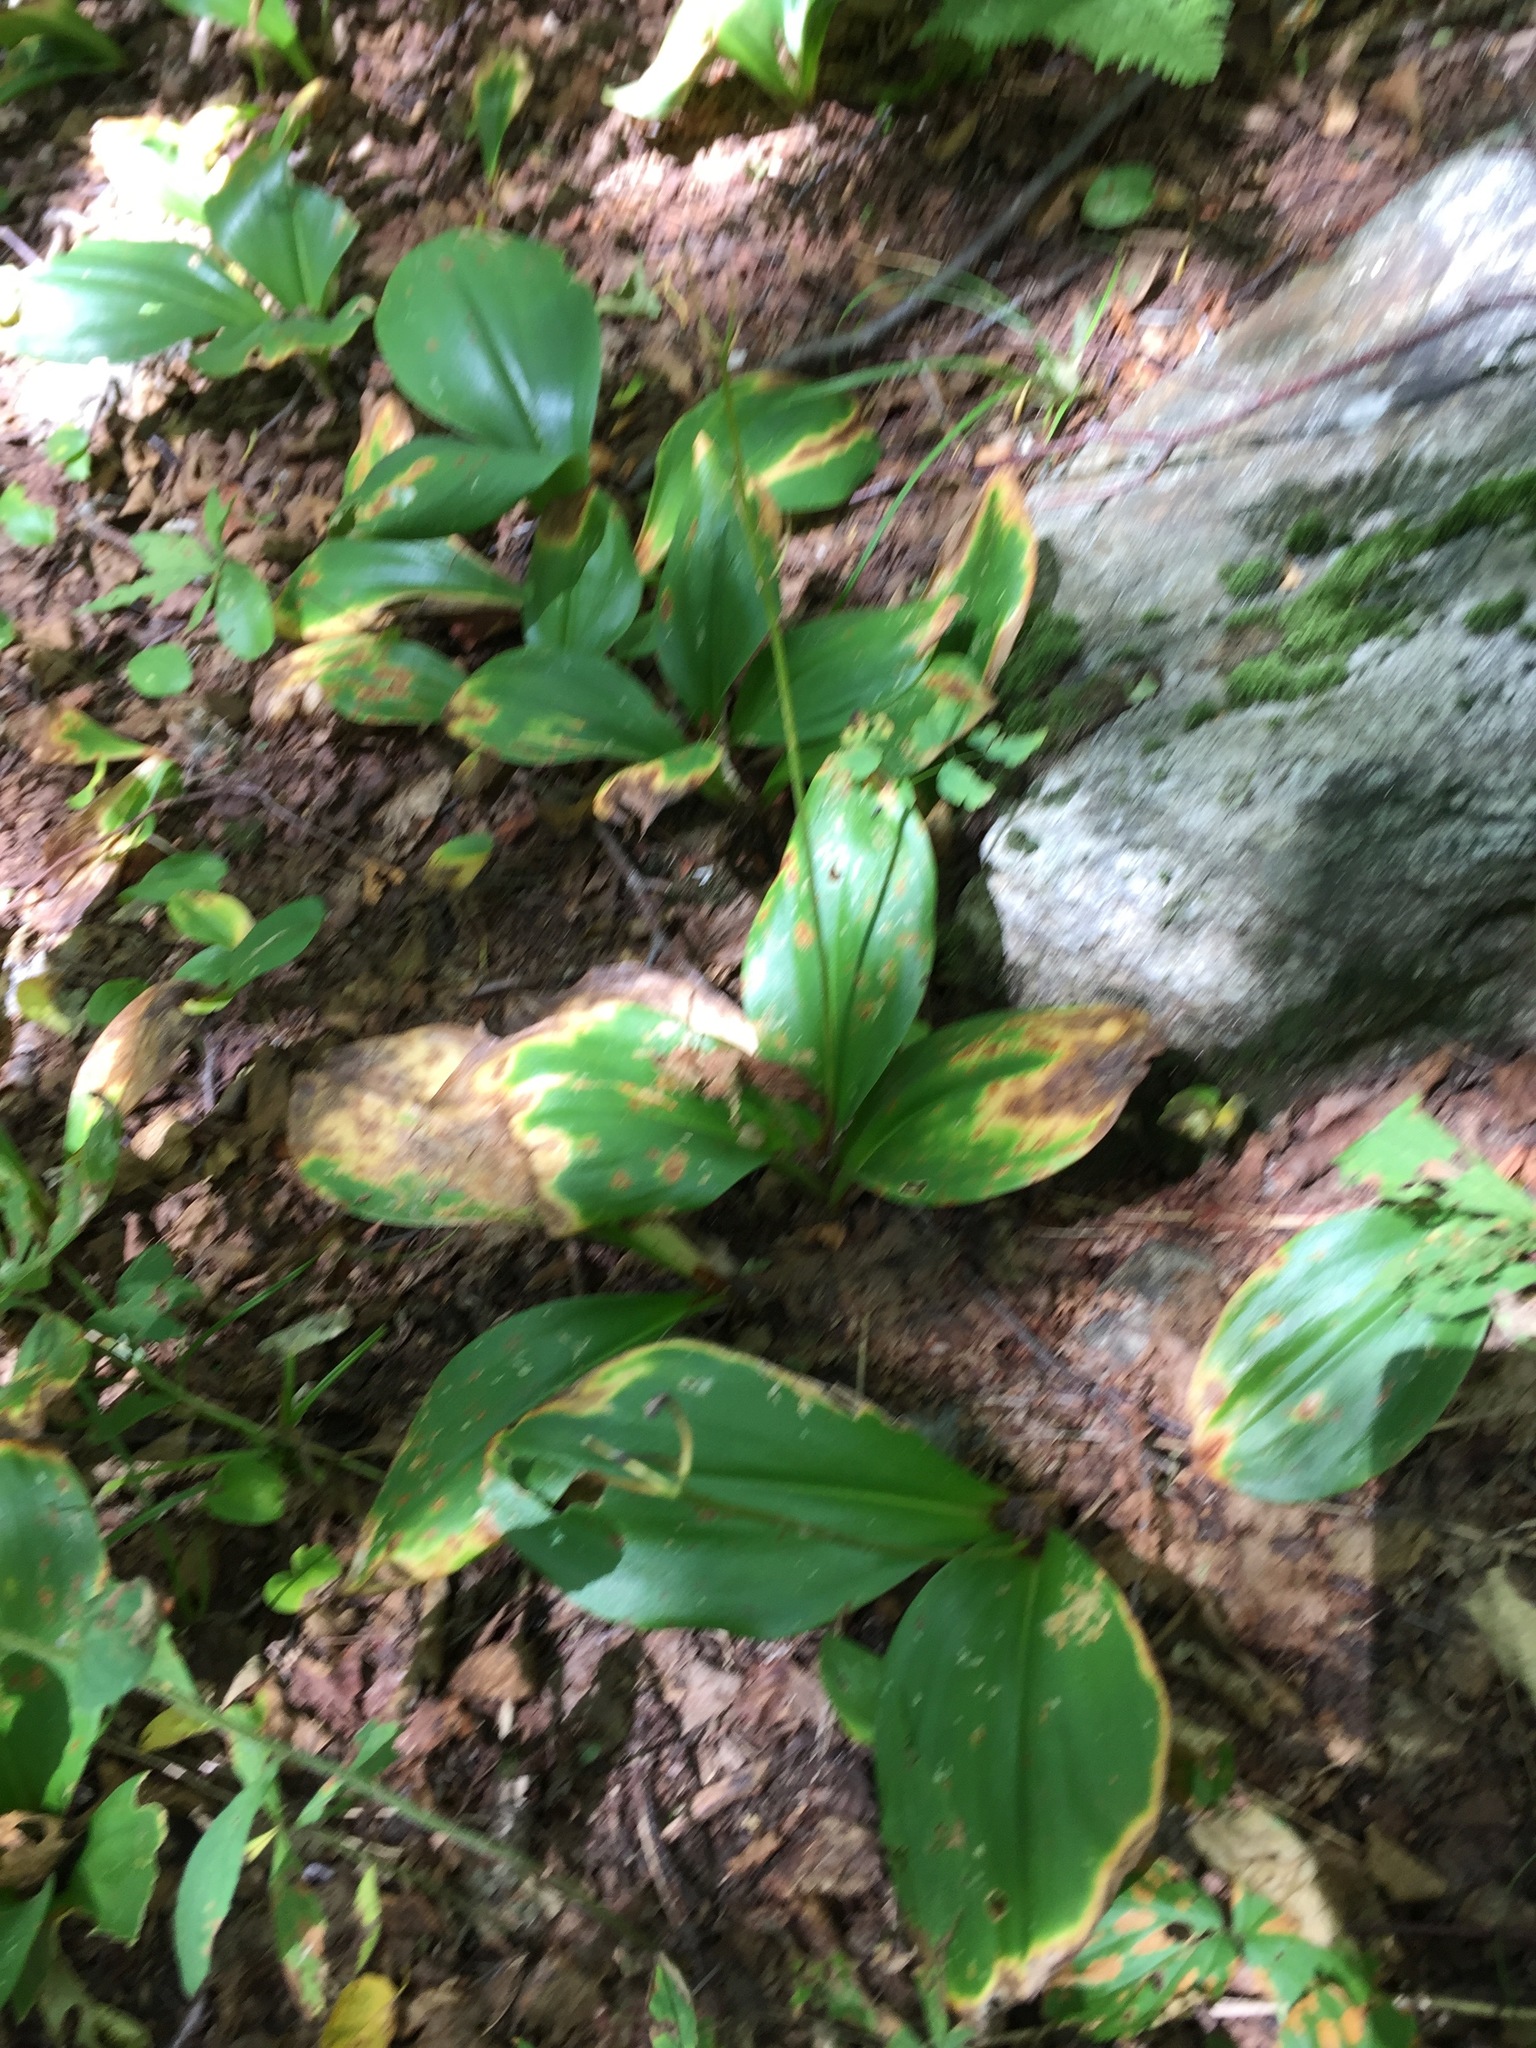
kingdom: Plantae
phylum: Tracheophyta
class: Liliopsida
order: Liliales
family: Liliaceae
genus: Clintonia
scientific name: Clintonia borealis
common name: Yellow clintonia
